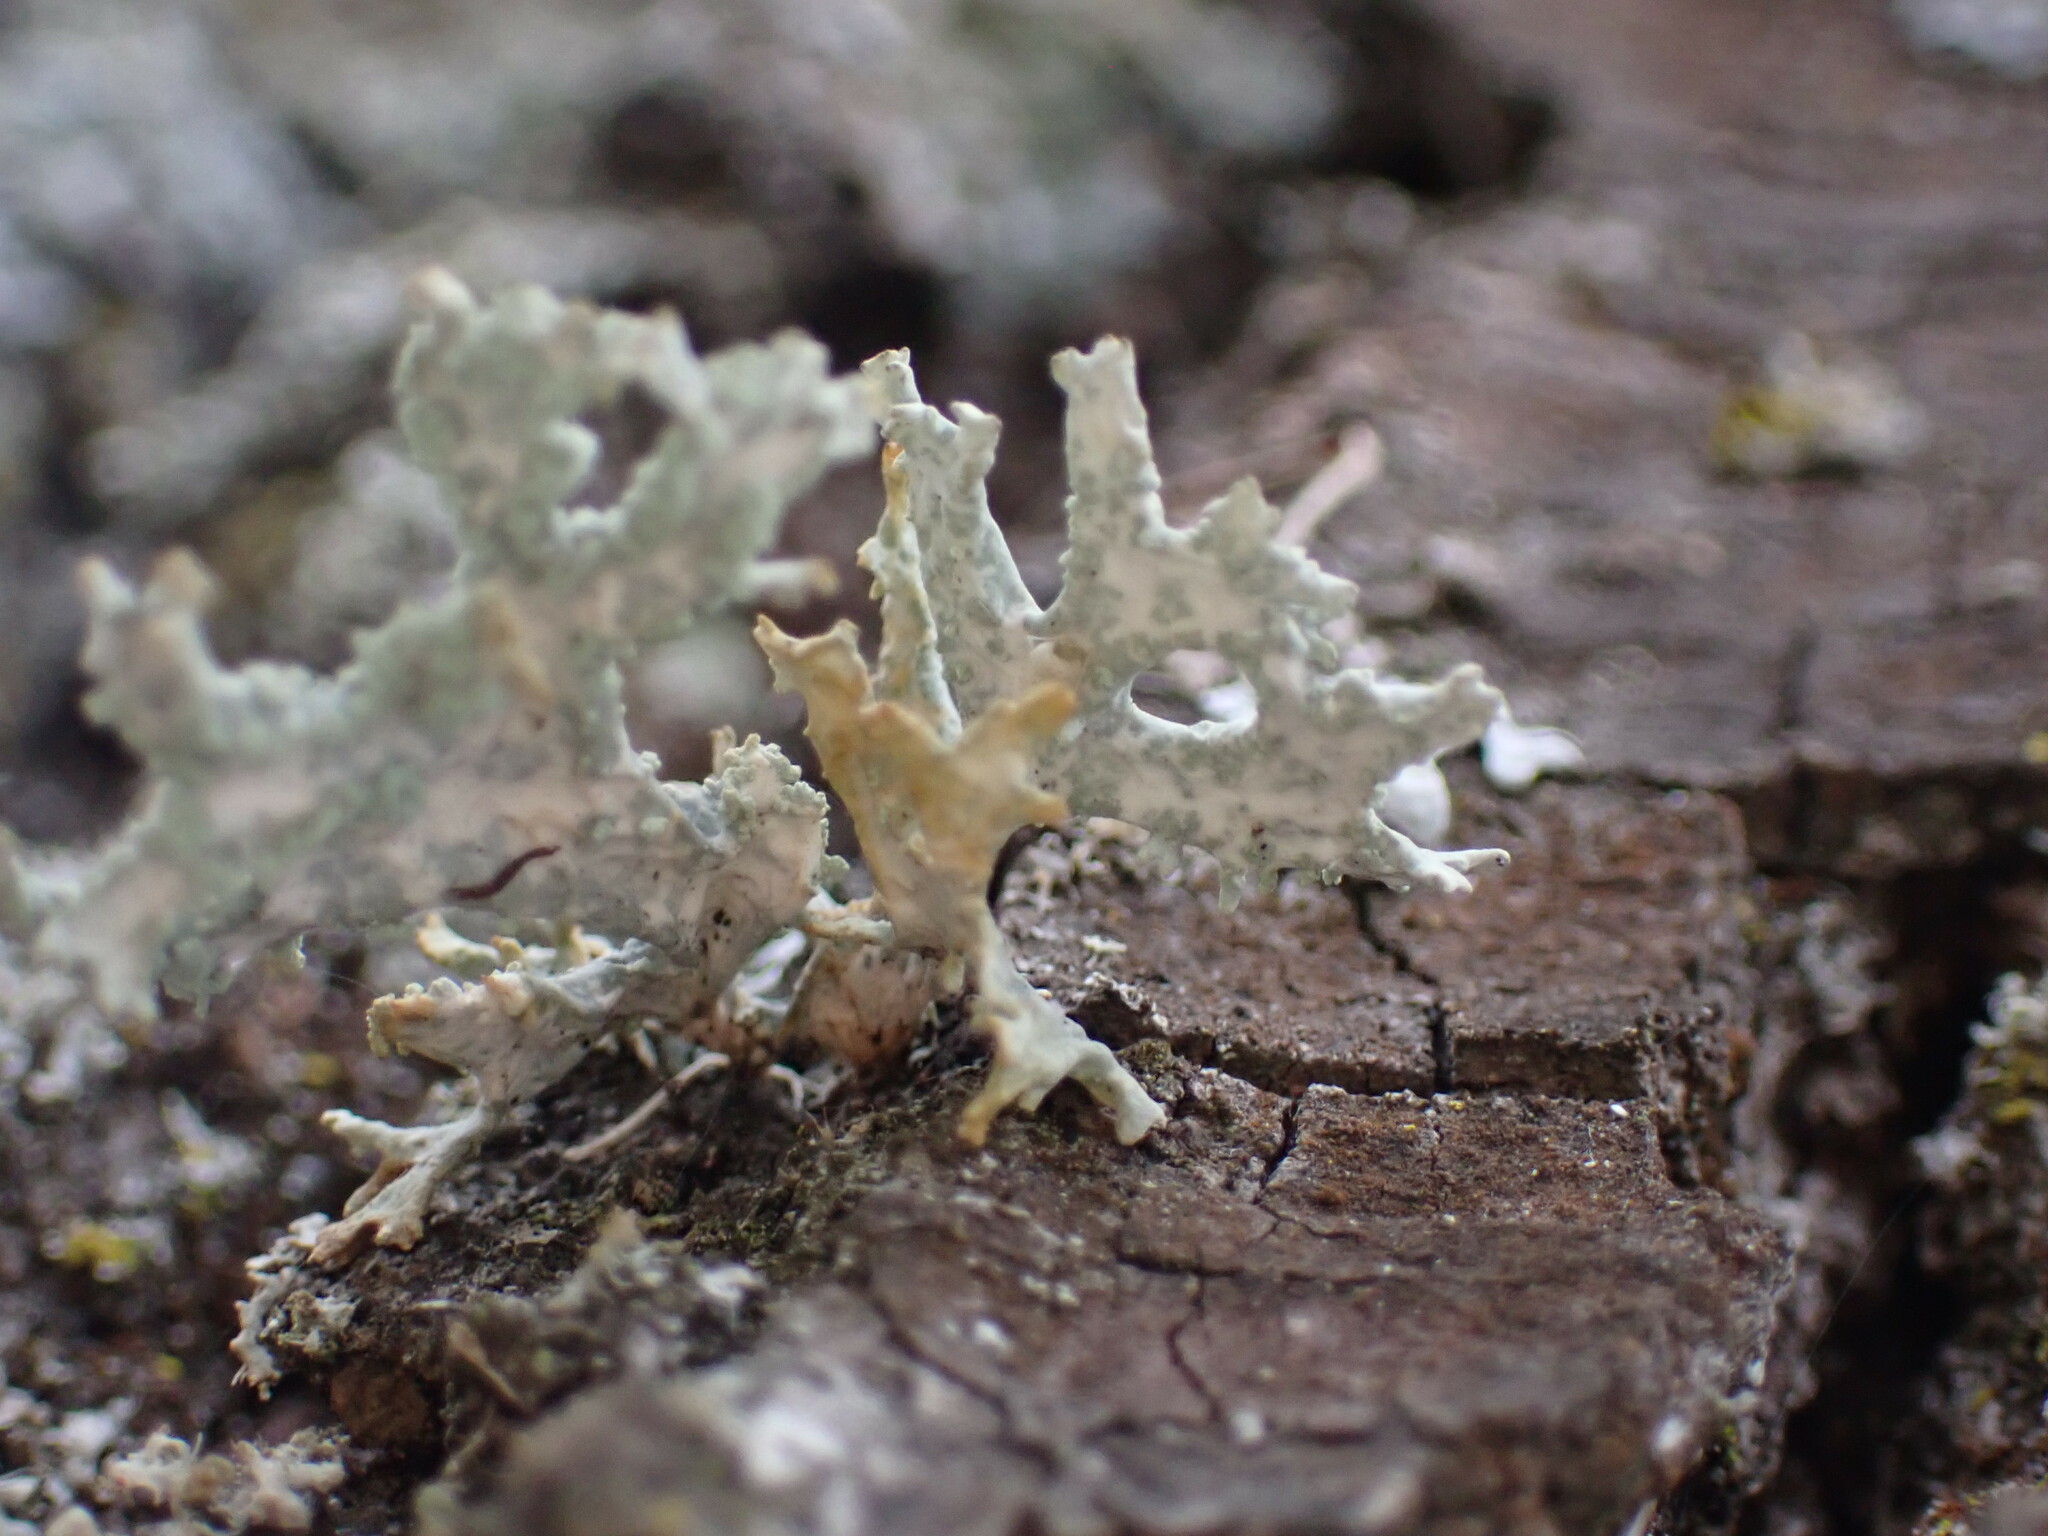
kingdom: Fungi
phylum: Ascomycota
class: Lecanoromycetes
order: Lecanorales
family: Parmeliaceae
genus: Evernia
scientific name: Evernia prunastri
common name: Oak moss
